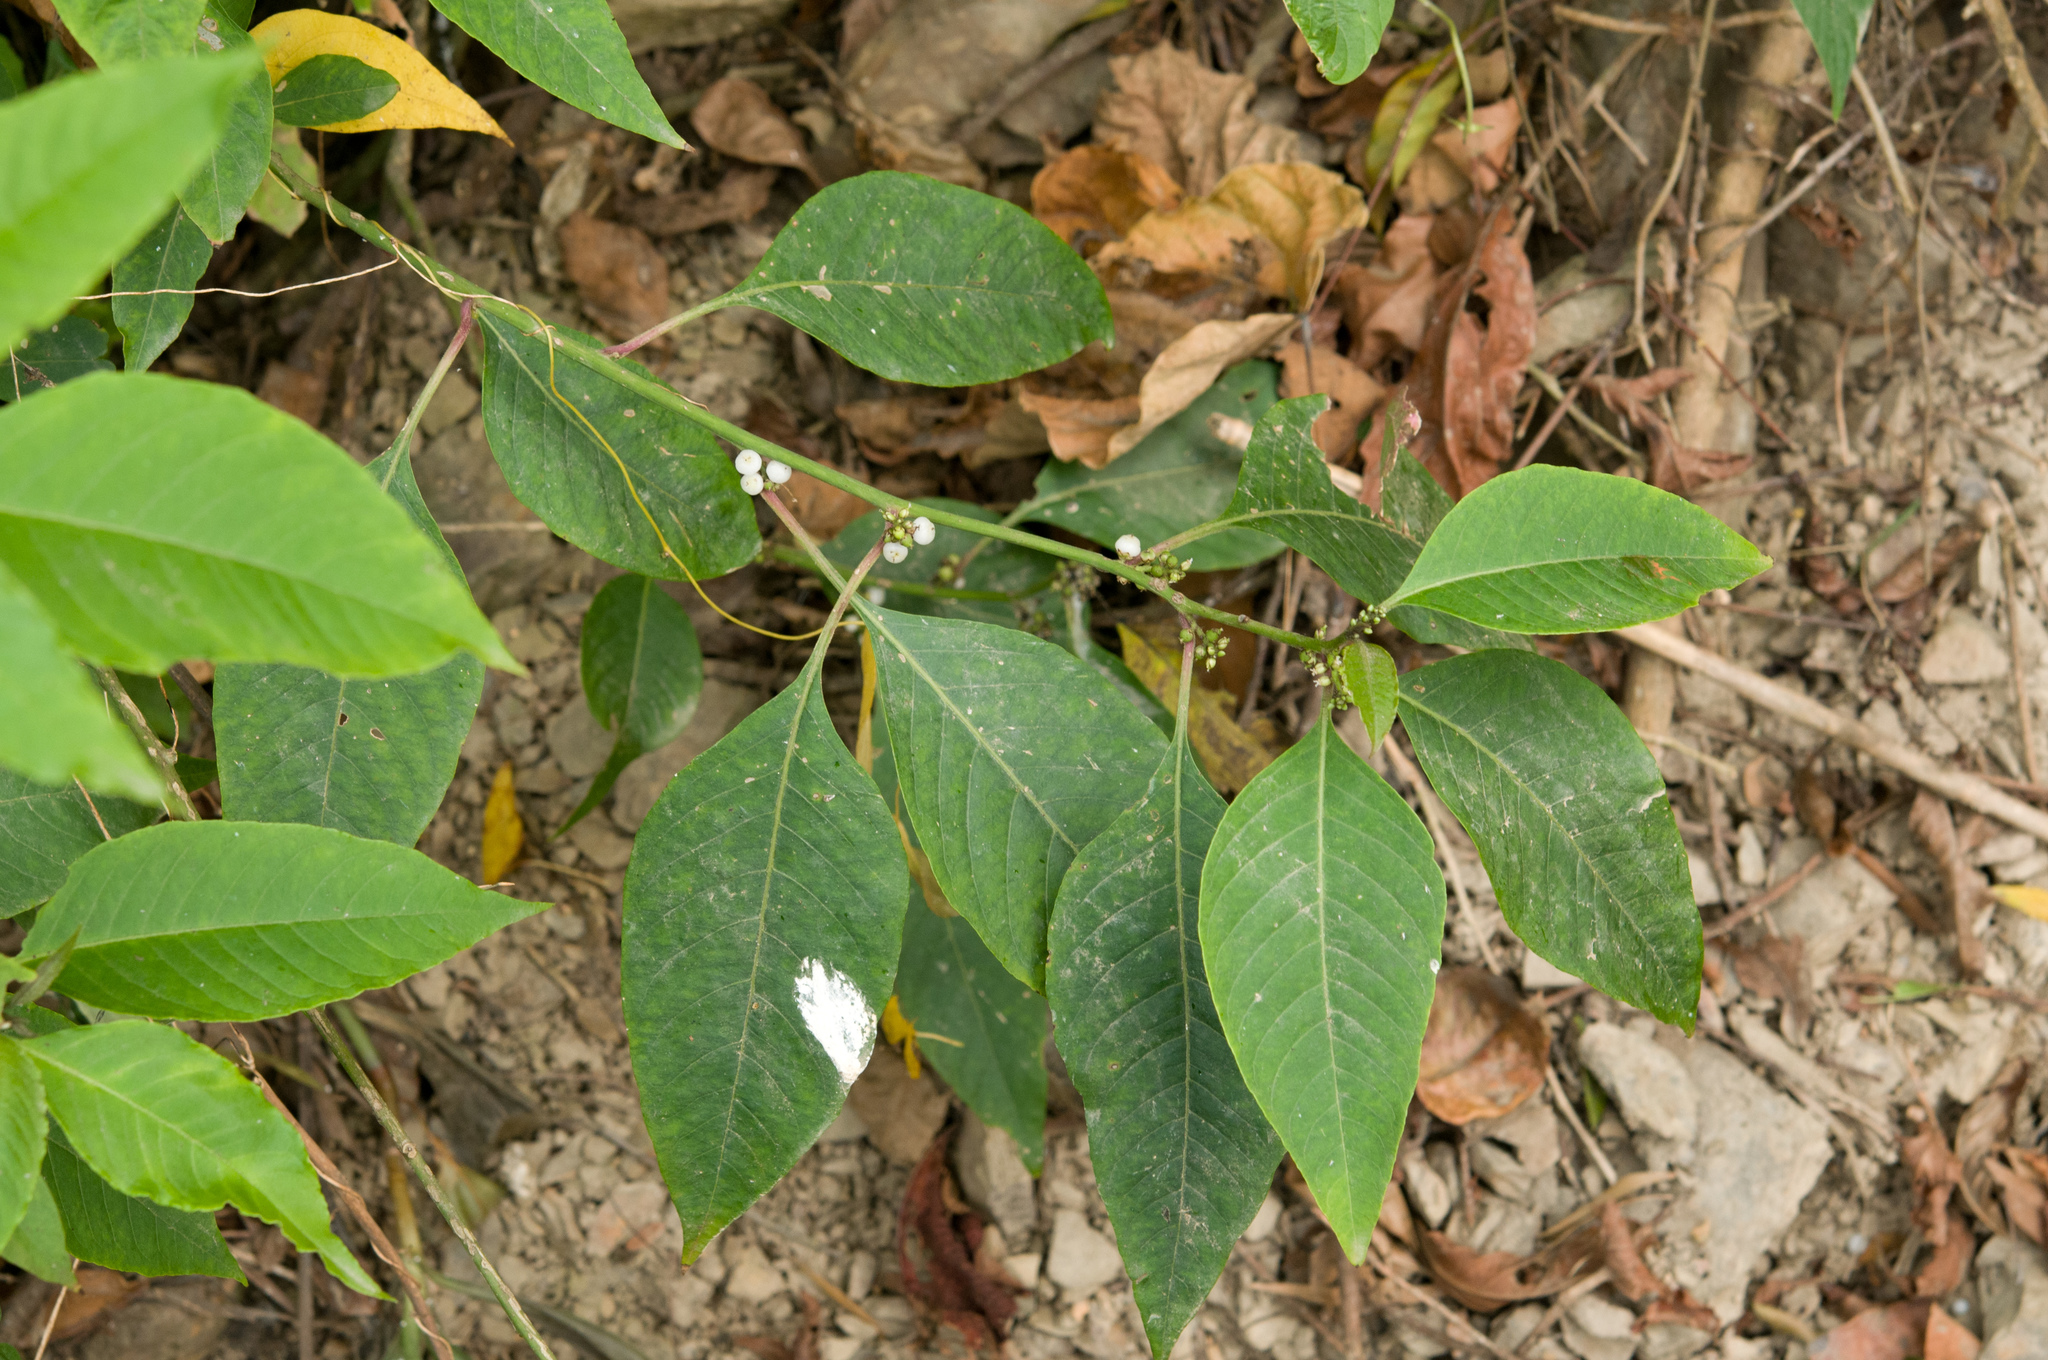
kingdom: Plantae
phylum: Tracheophyta
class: Magnoliopsida
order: Caryophyllales
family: Amaranthaceae
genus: Deeringia
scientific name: Deeringia polysperma
